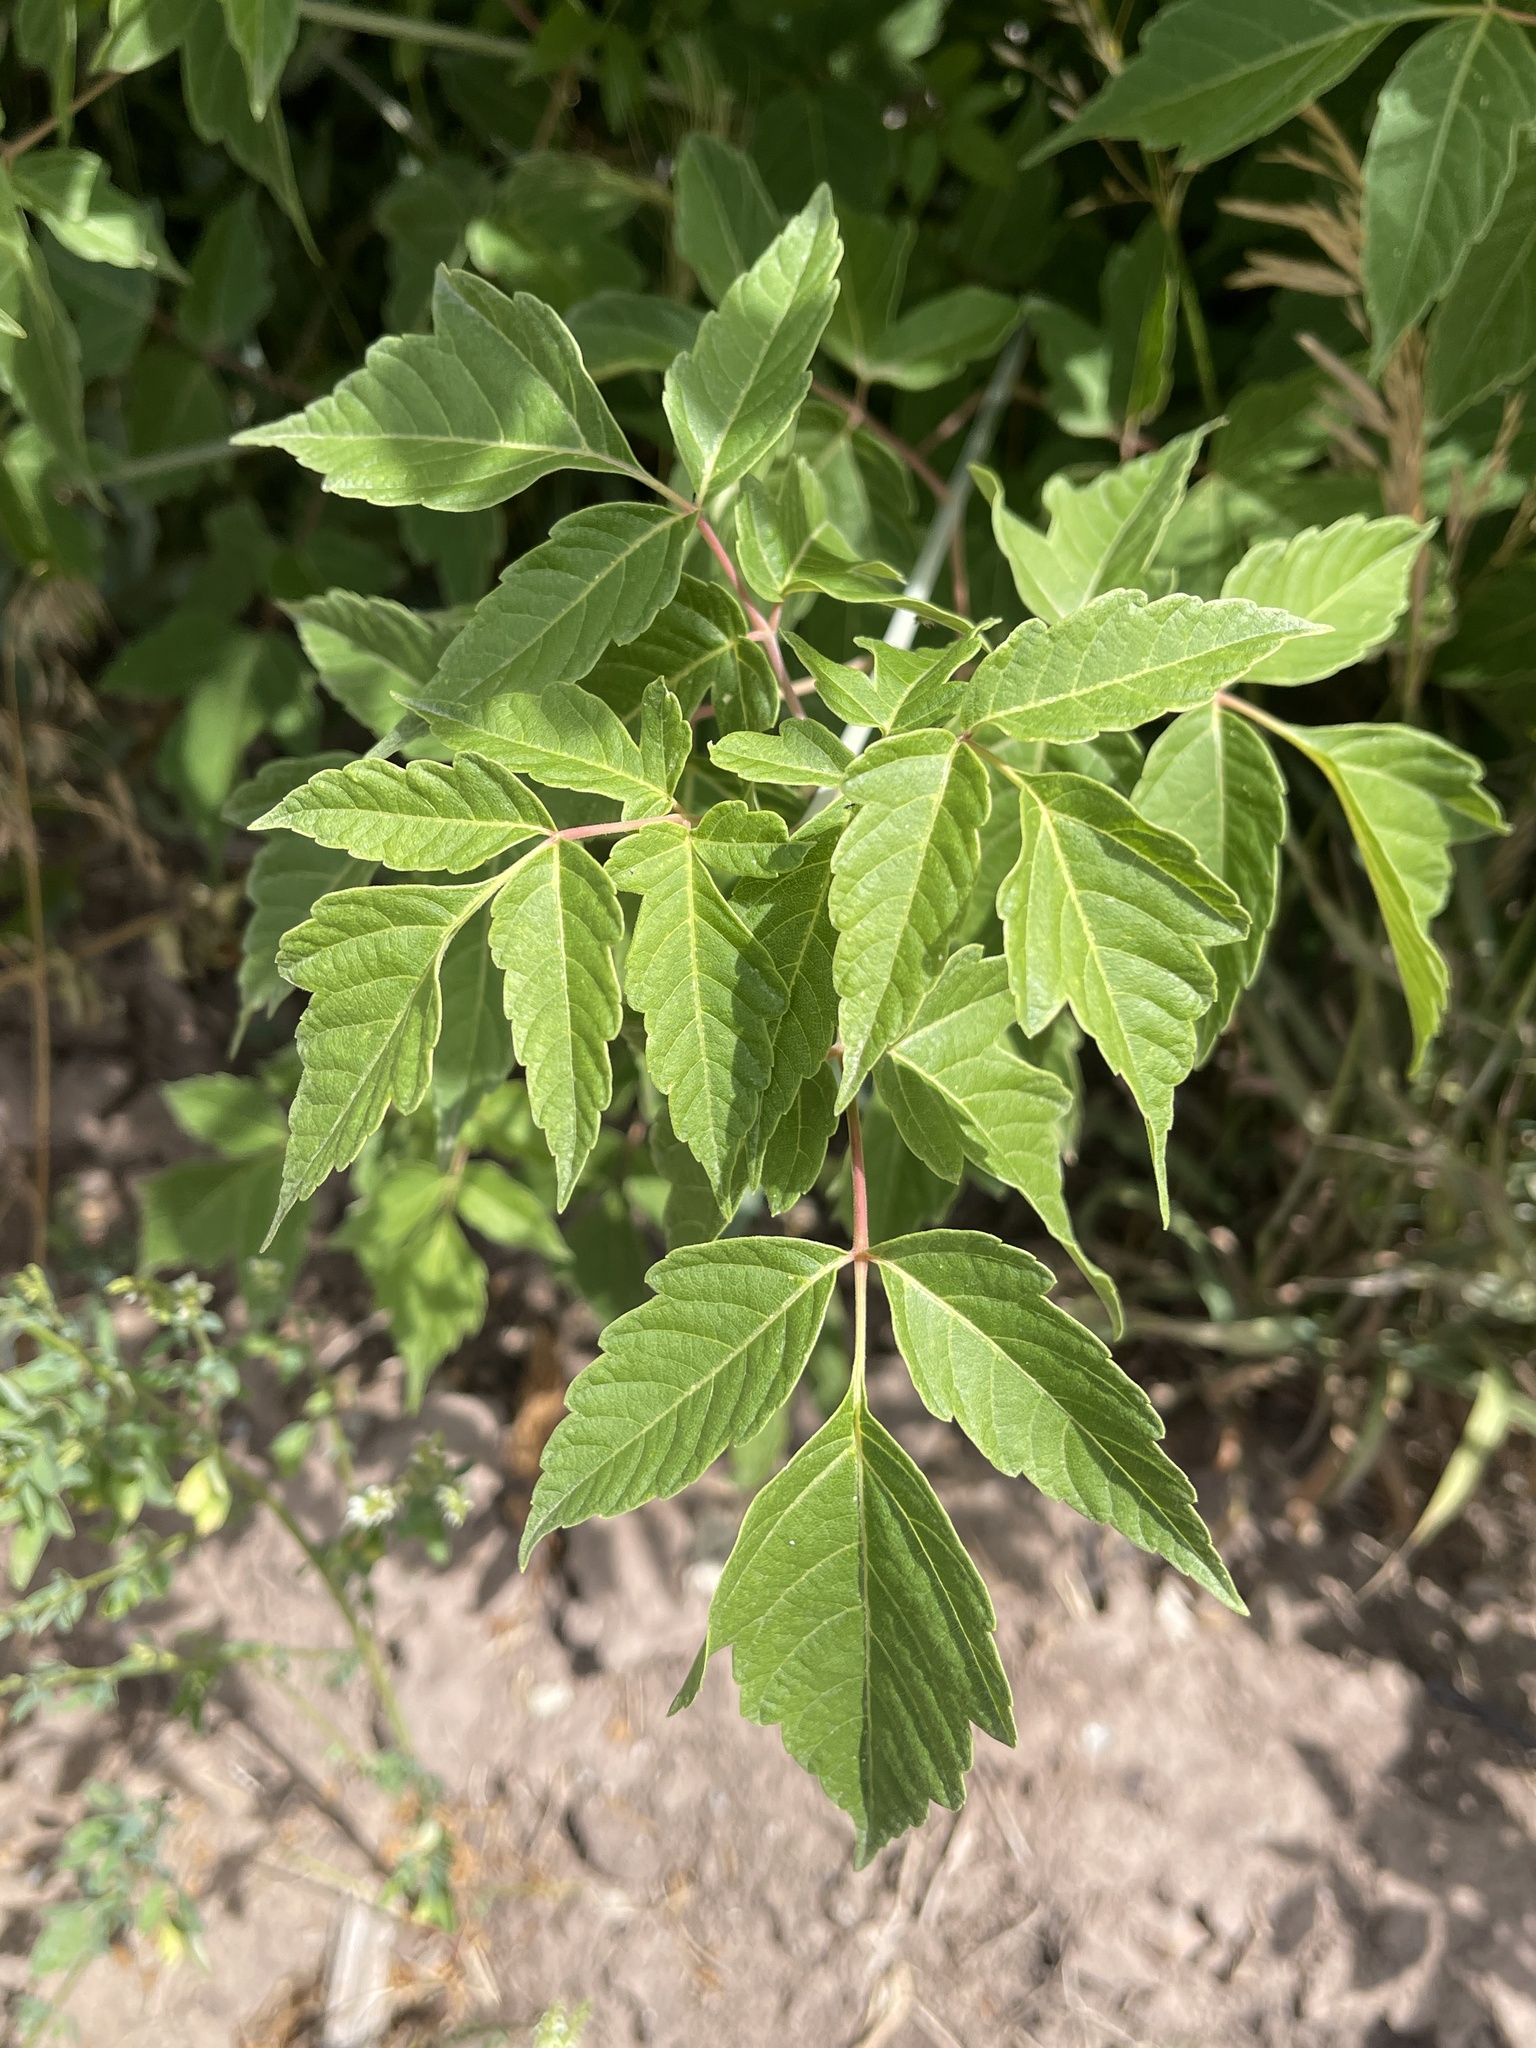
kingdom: Plantae
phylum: Tracheophyta
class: Magnoliopsida
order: Sapindales
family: Sapindaceae
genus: Acer
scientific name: Acer negundo
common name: Ashleaf maple
